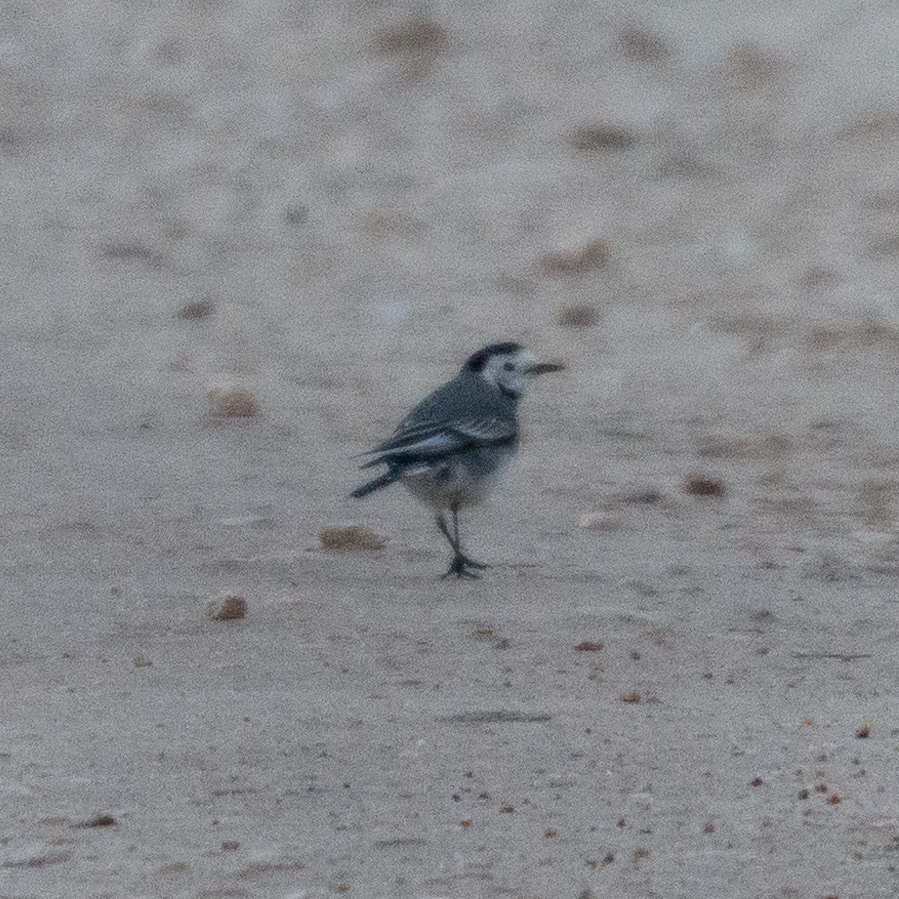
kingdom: Animalia
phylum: Chordata
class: Aves
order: Passeriformes
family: Motacillidae
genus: Motacilla
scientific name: Motacilla alba
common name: White wagtail
